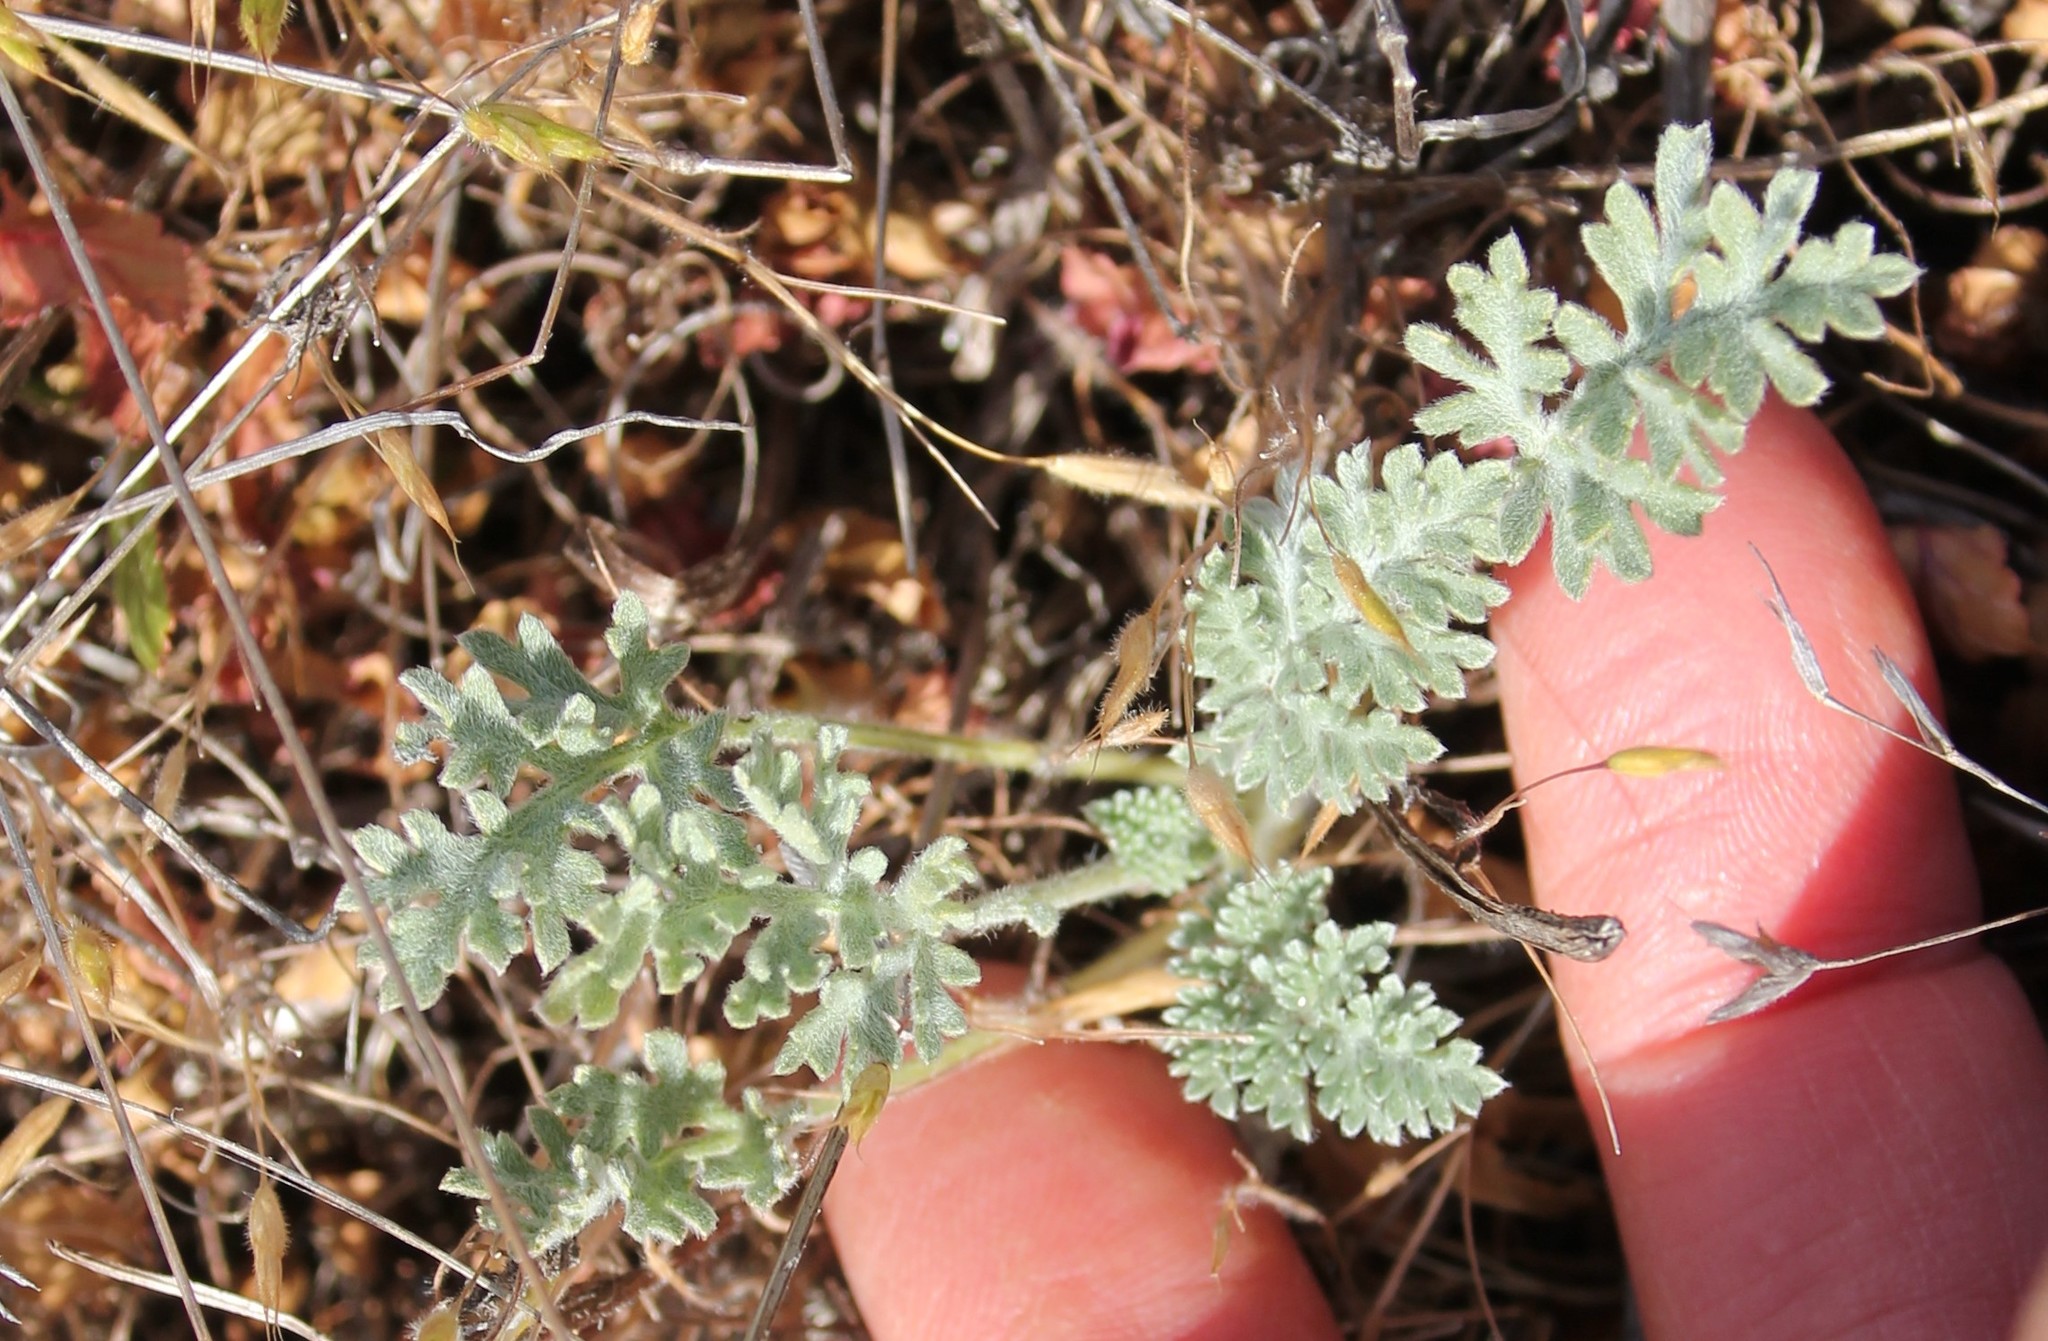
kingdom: Plantae
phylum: Tracheophyta
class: Magnoliopsida
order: Asterales
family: Asteraceae
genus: Ambrosia
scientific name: Ambrosia pumila
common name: San diego ambrosia
